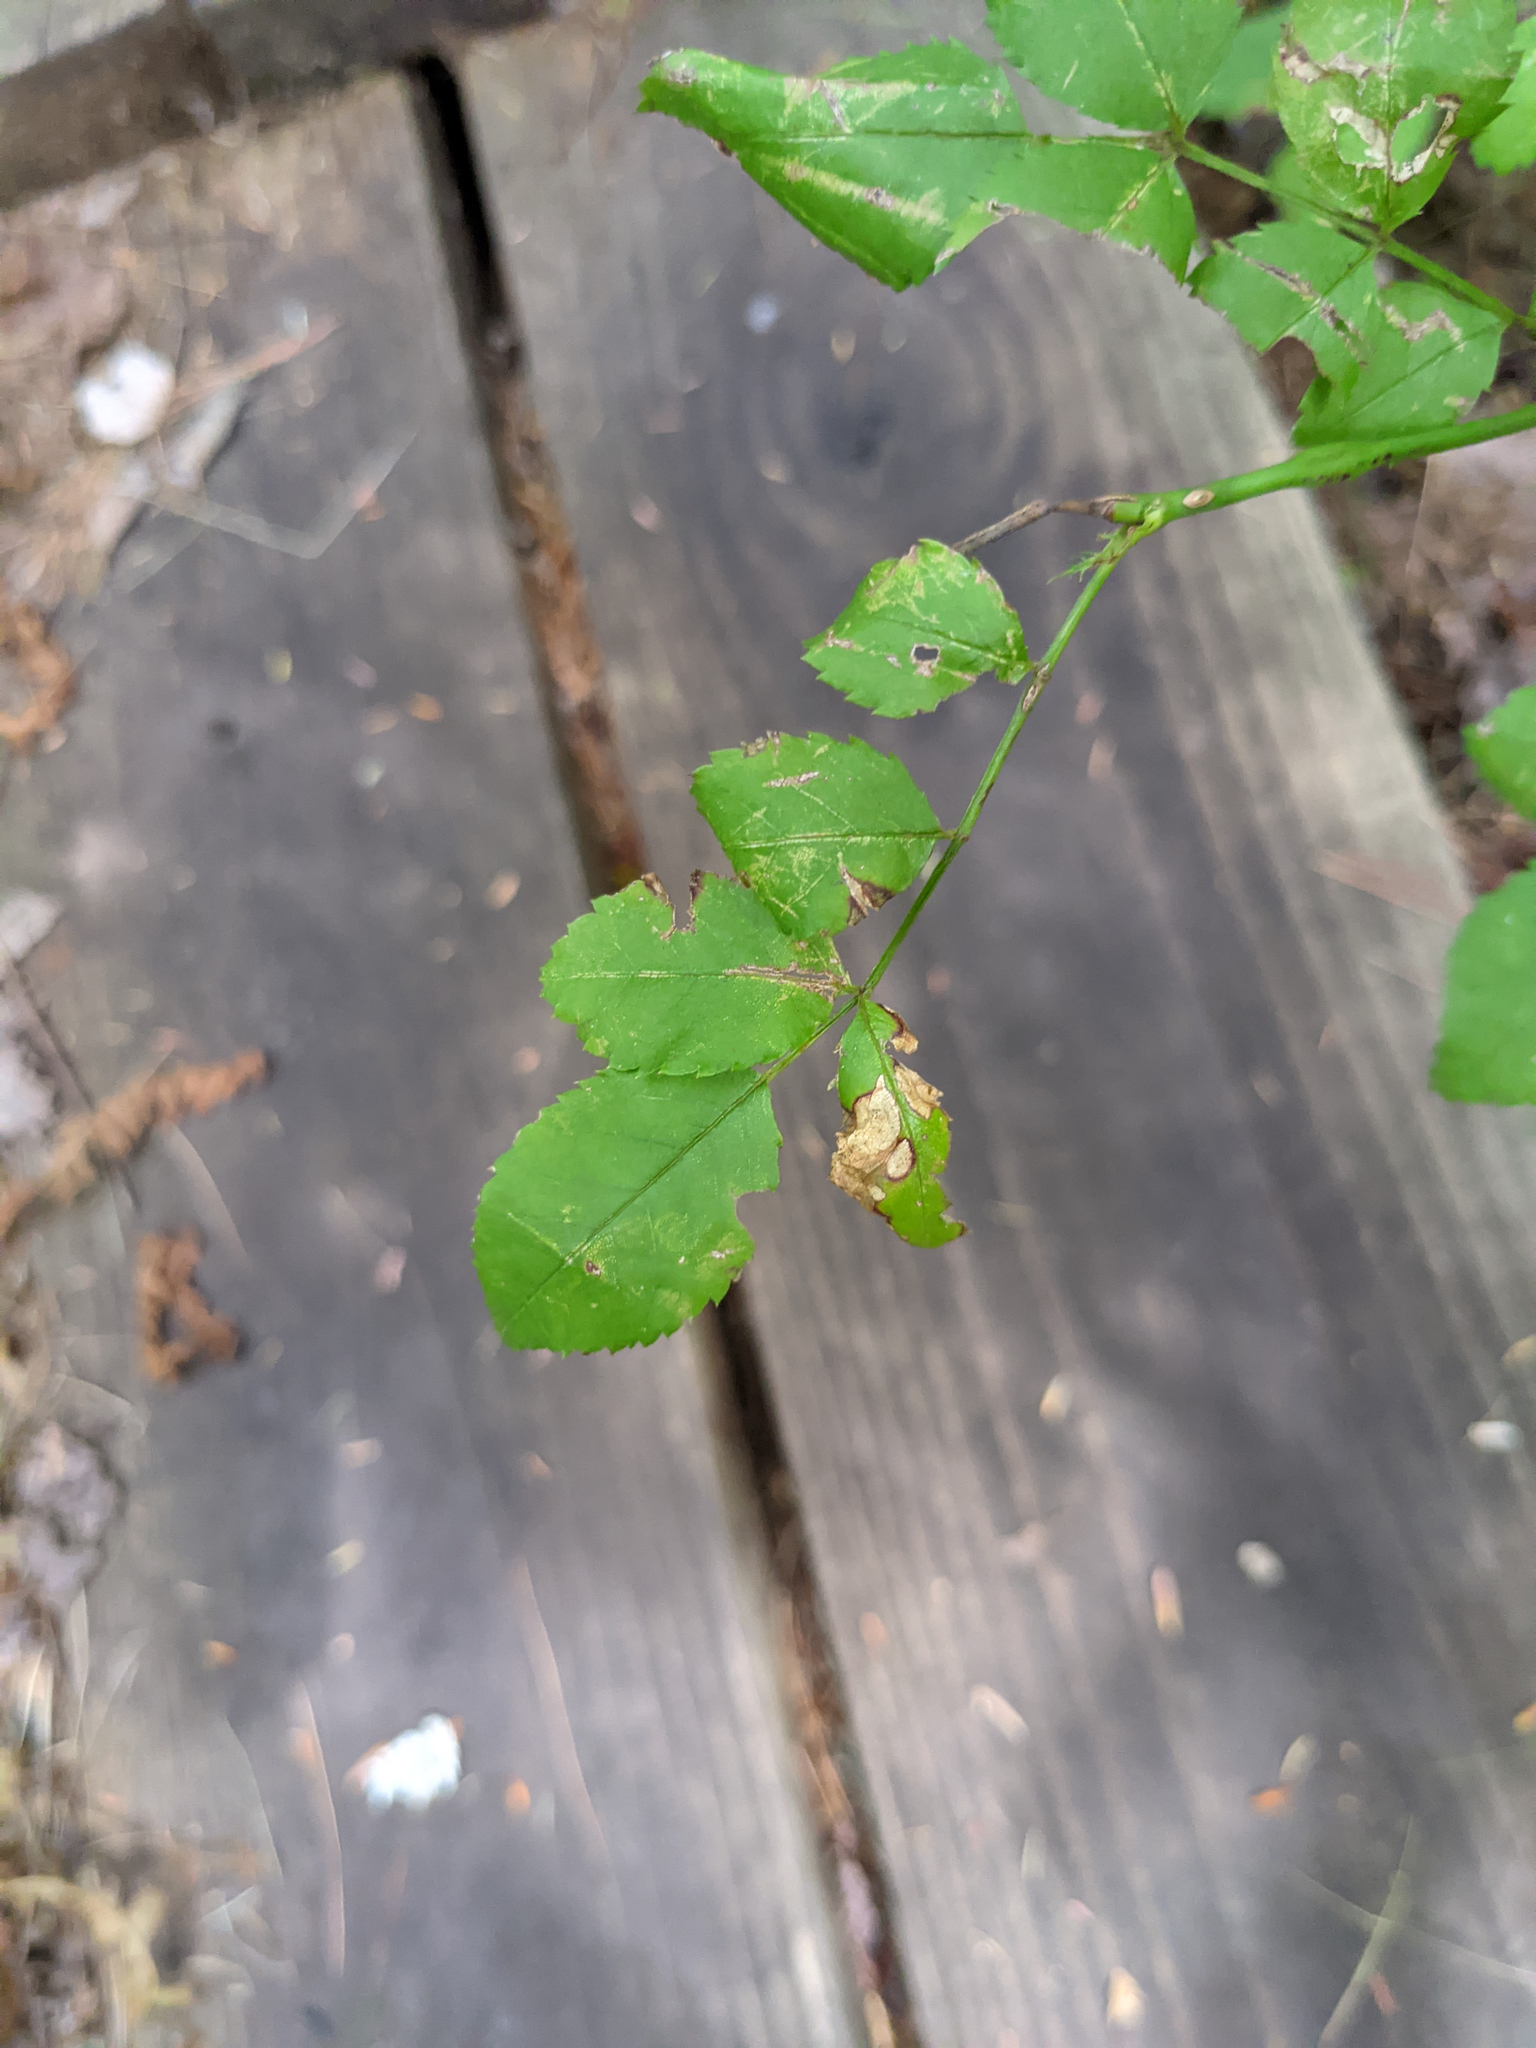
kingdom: Plantae
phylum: Tracheophyta
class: Magnoliopsida
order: Rosales
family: Rosaceae
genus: Rosa
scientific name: Rosa multiflora
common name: Multiflora rose
